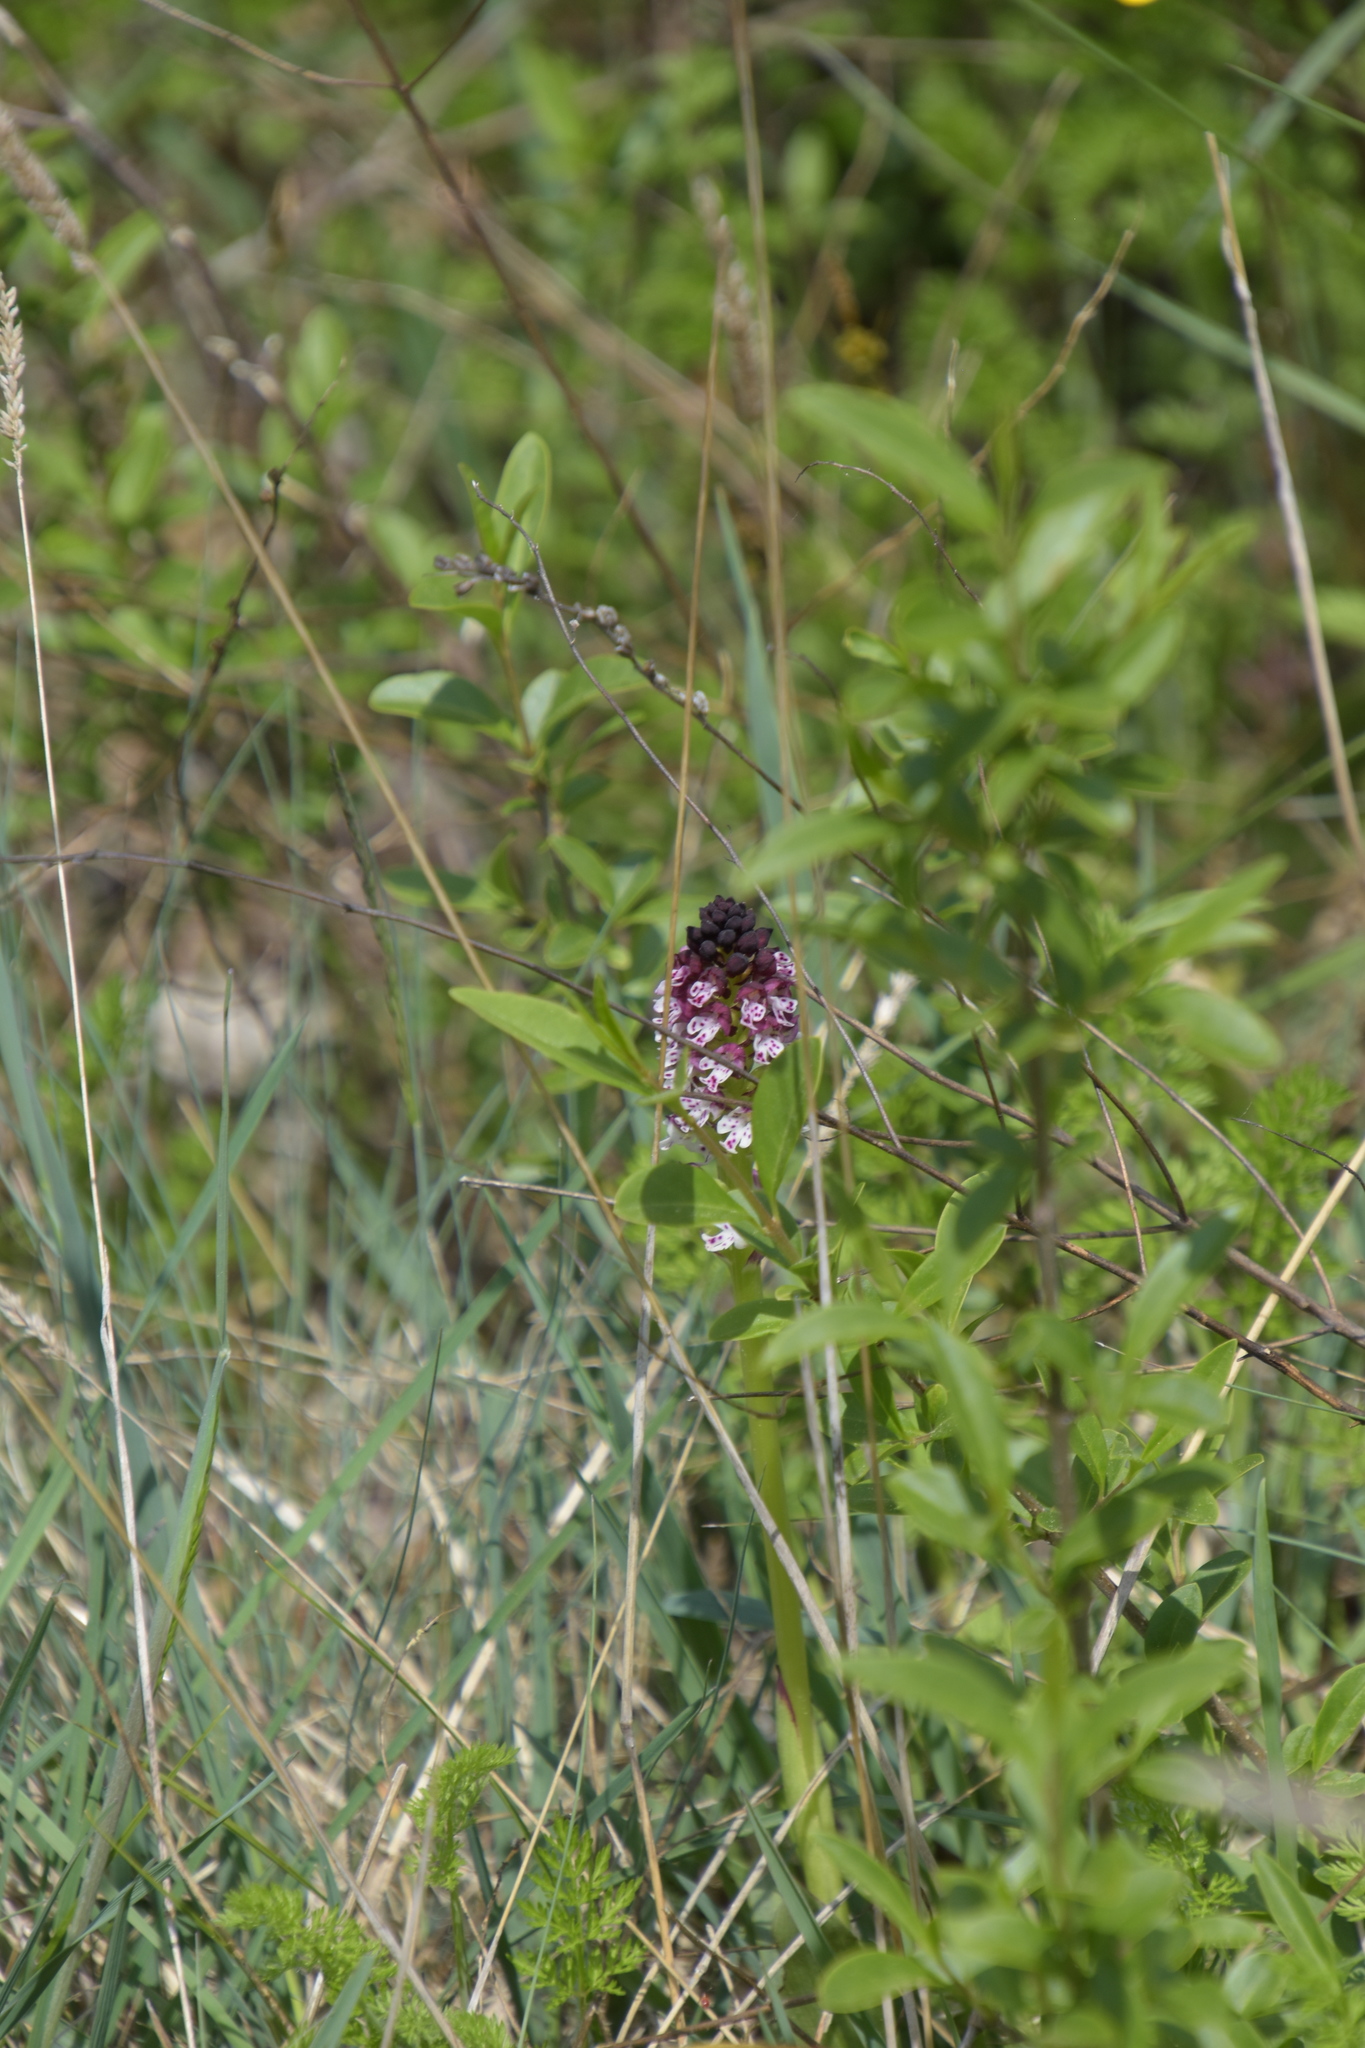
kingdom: Plantae
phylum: Tracheophyta
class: Liliopsida
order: Asparagales
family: Orchidaceae
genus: Neotinea
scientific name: Neotinea ustulata
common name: Burnt orchid
